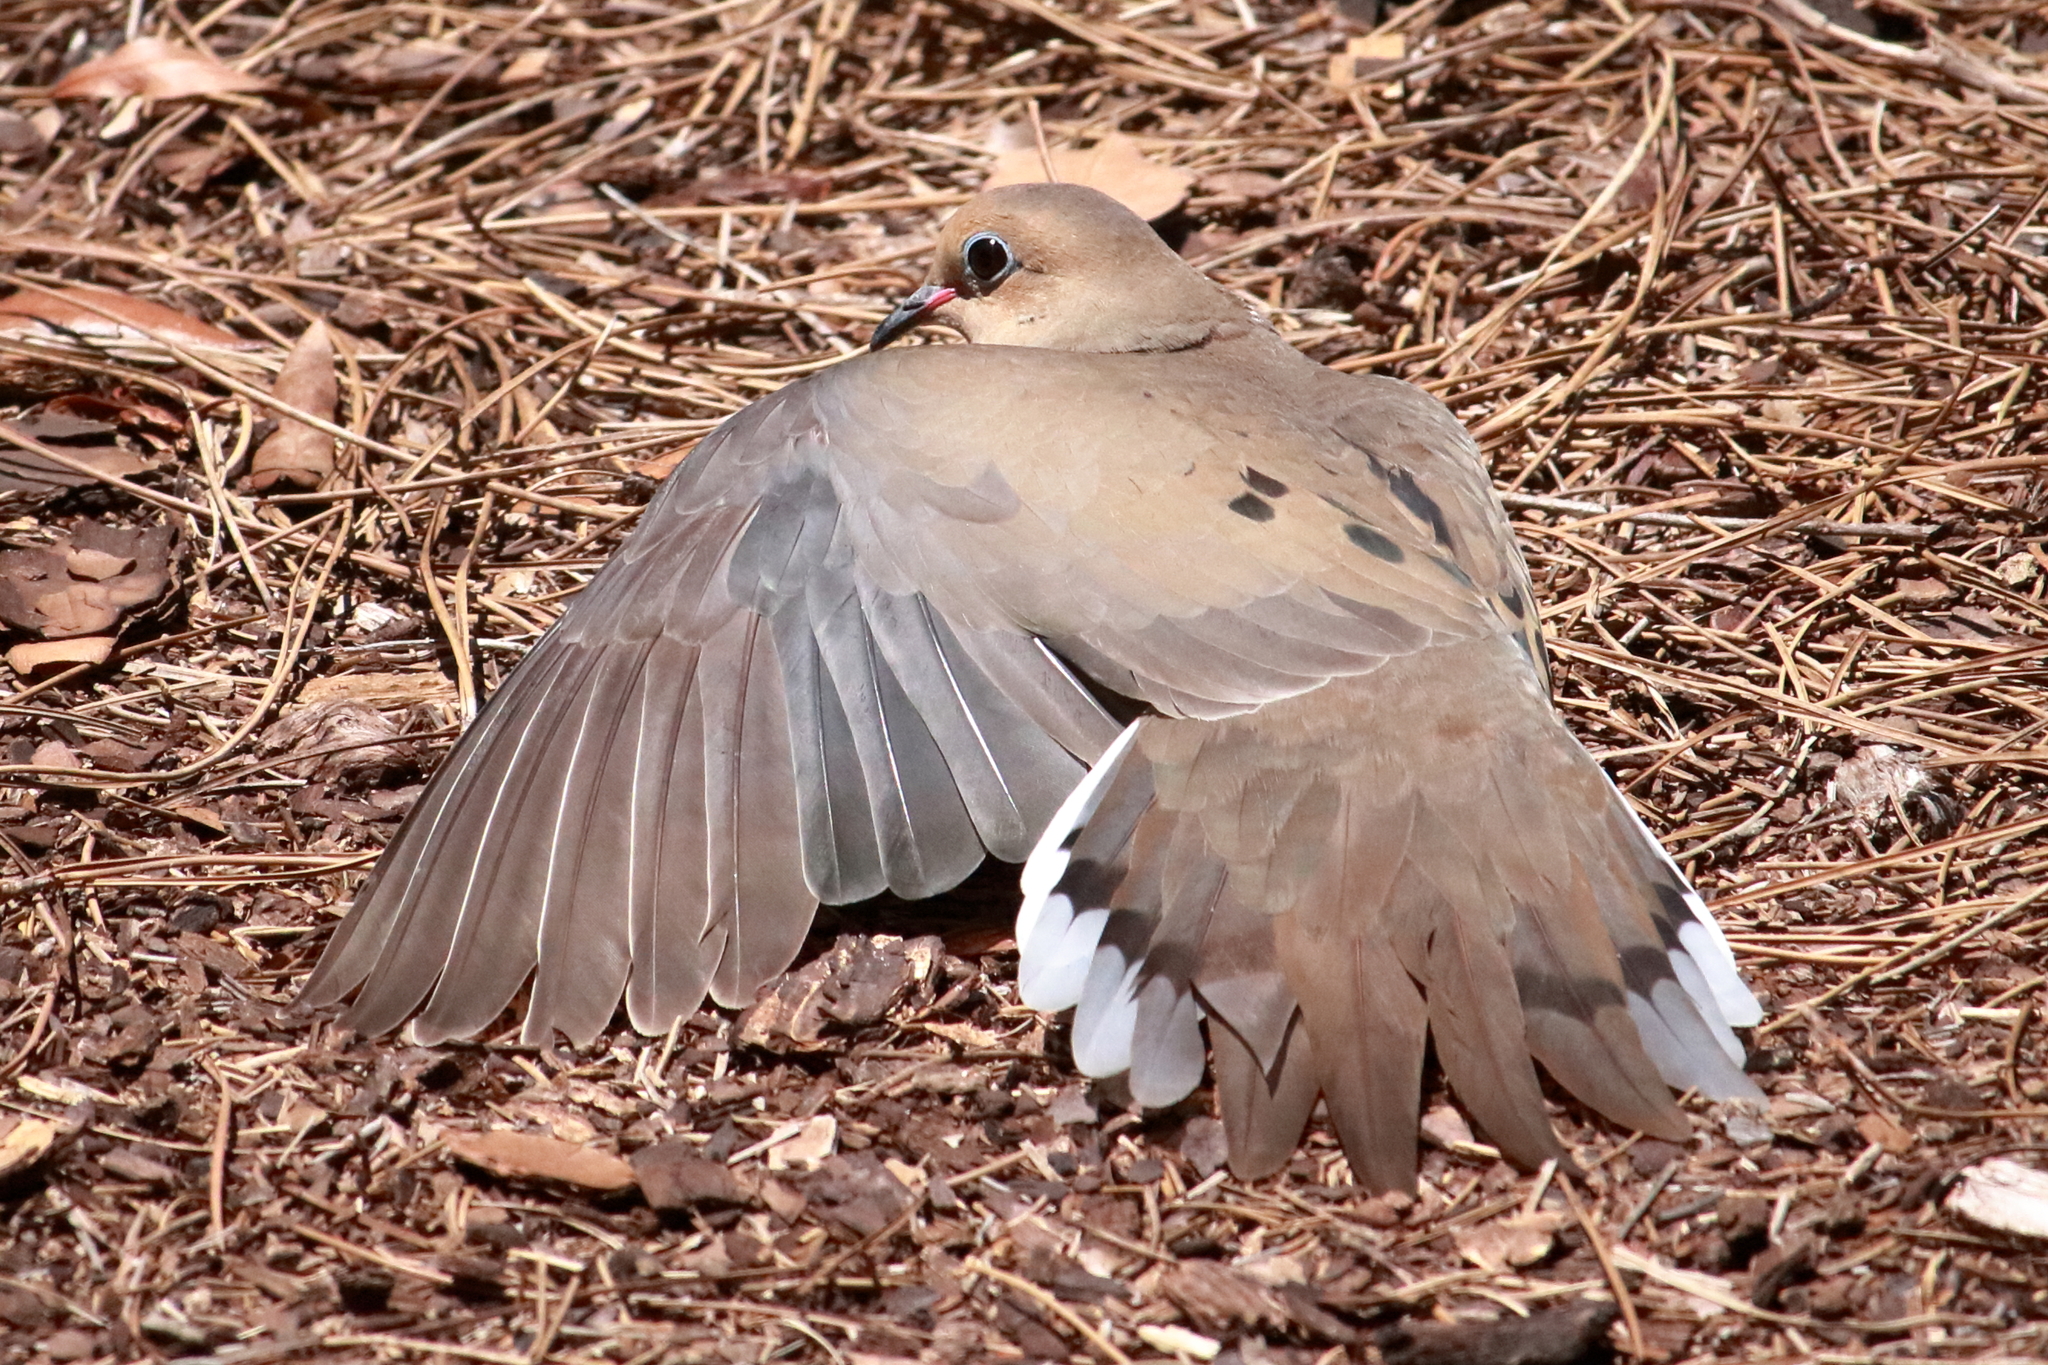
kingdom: Animalia
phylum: Chordata
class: Aves
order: Columbiformes
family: Columbidae
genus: Zenaida
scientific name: Zenaida macroura
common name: Mourning dove
